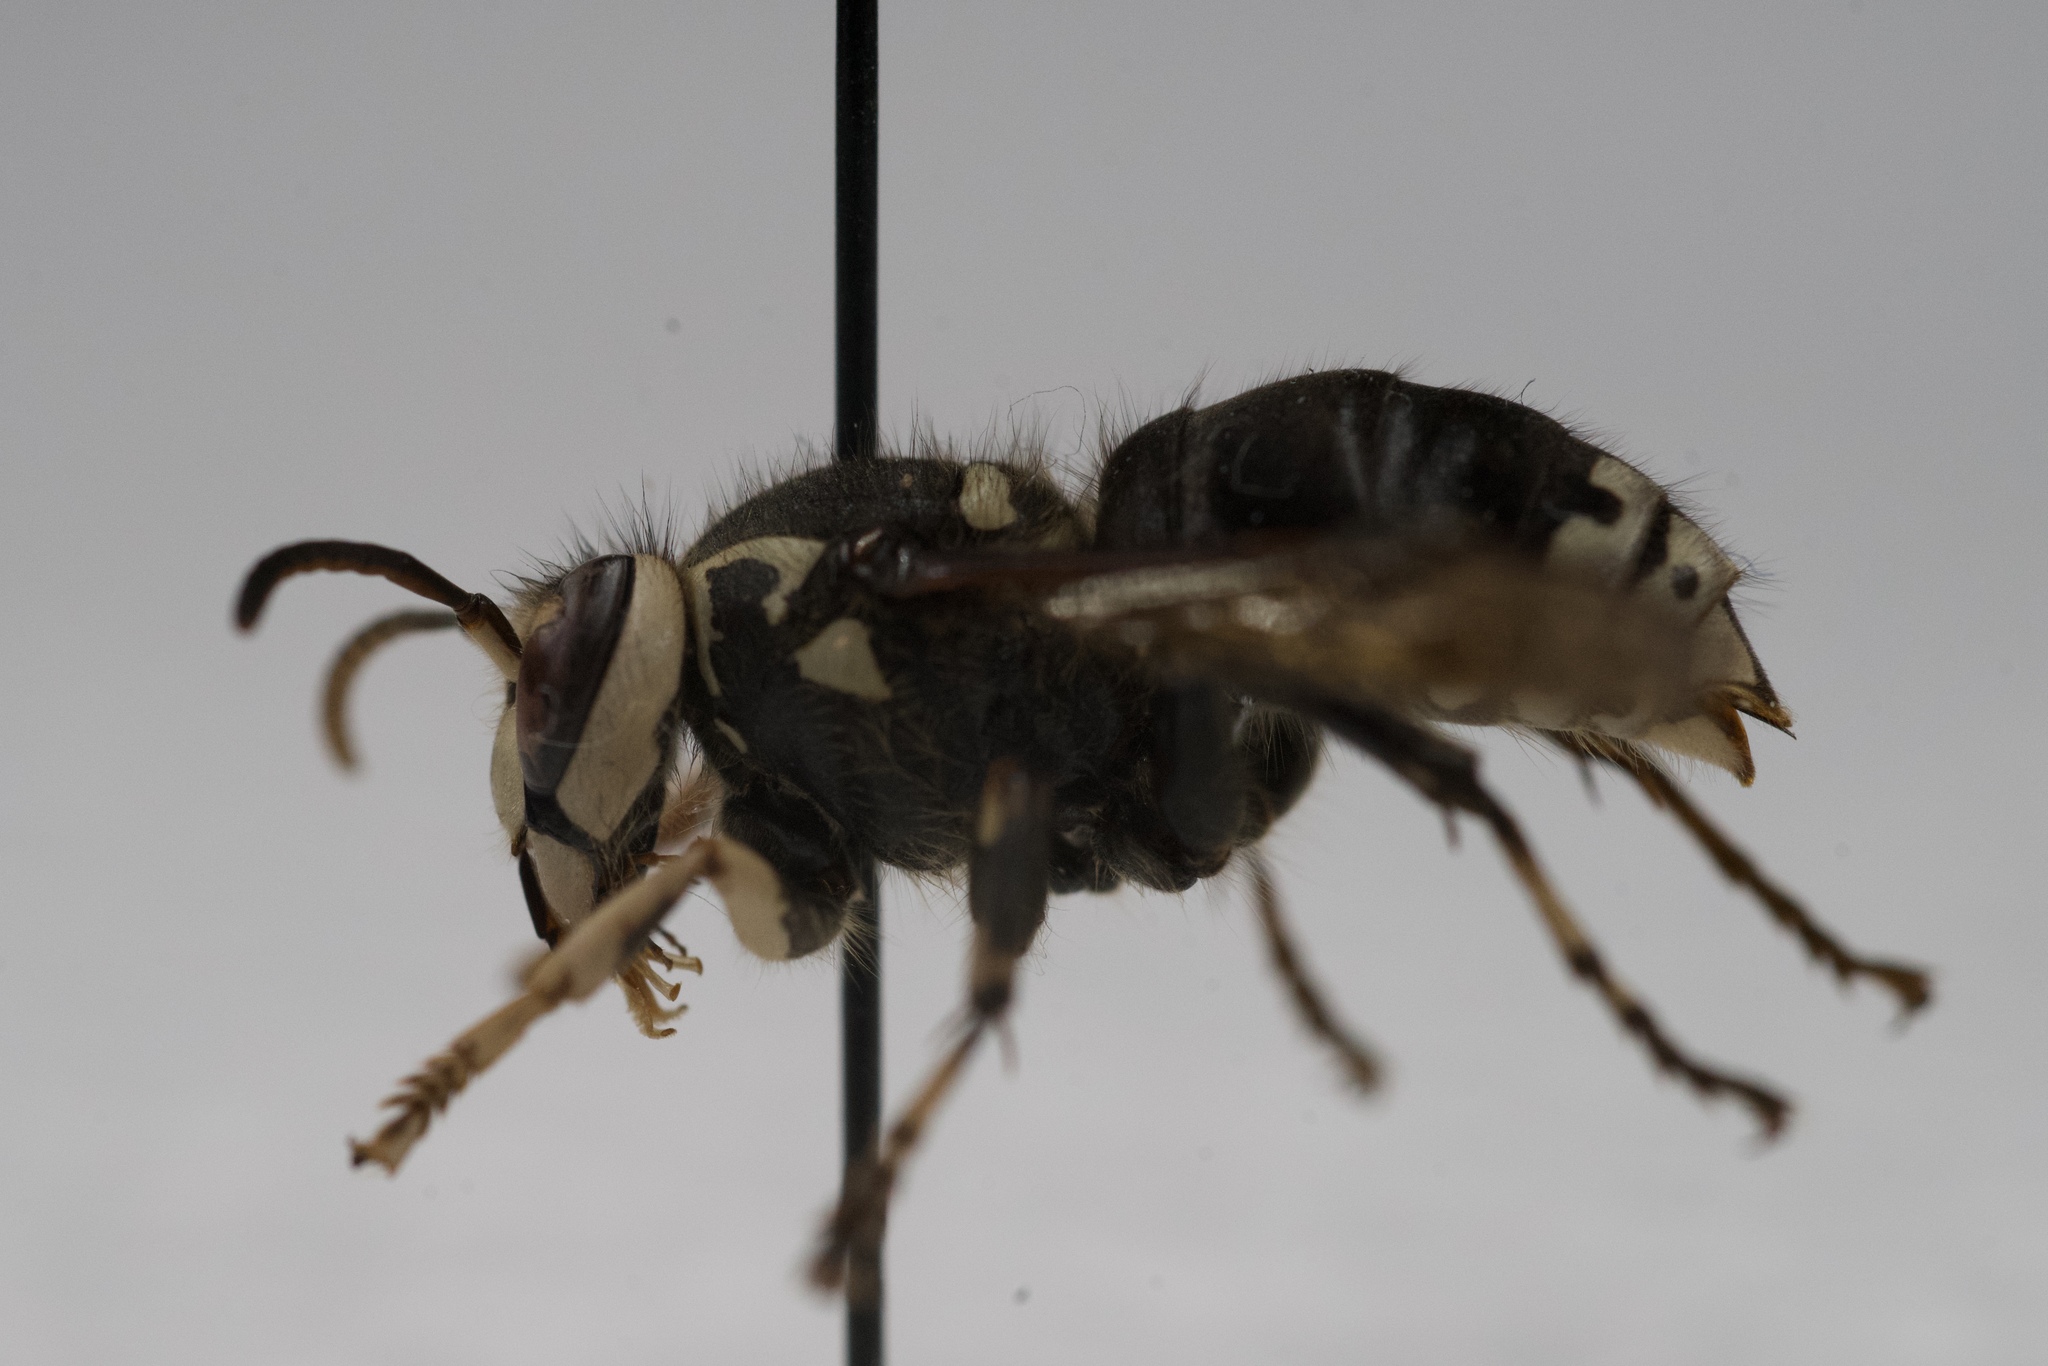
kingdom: Animalia
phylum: Arthropoda
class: Insecta
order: Hymenoptera
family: Vespidae
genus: Dolichovespula
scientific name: Dolichovespula maculata
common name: Bald-faced hornet
